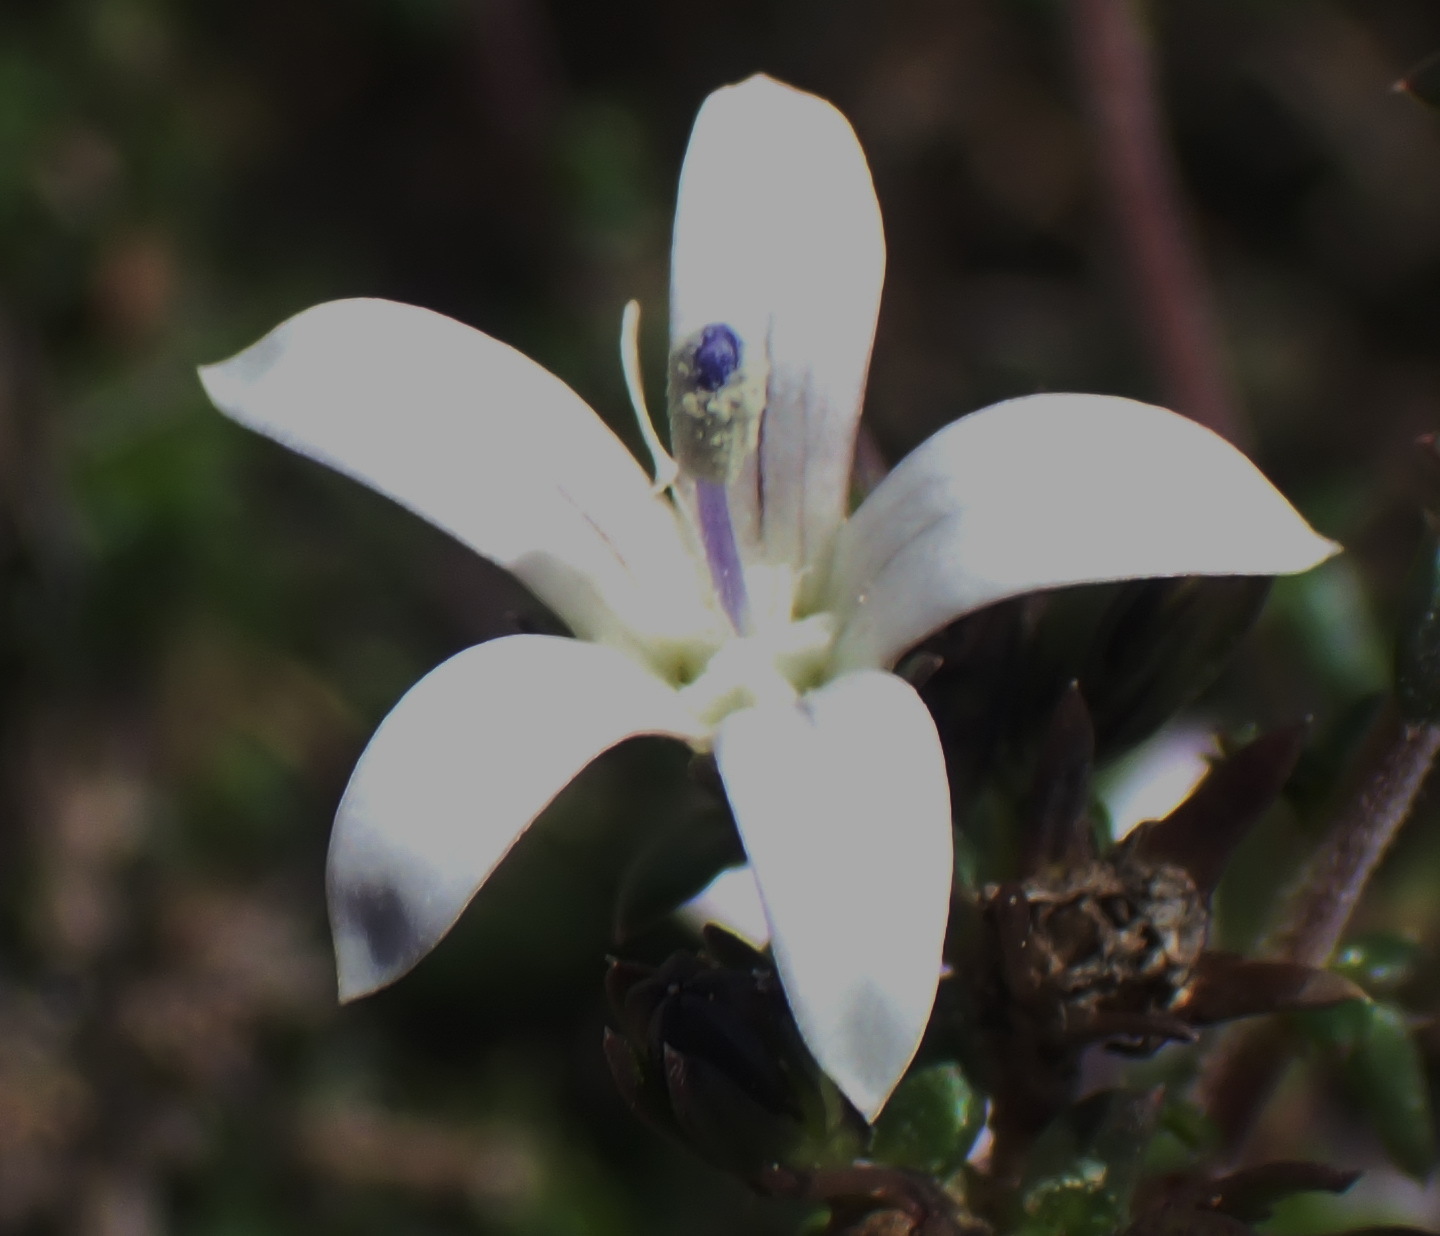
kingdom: Plantae
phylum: Tracheophyta
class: Magnoliopsida
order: Asterales
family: Campanulaceae
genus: Wahlenbergia
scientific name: Wahlenbergia nodosa
